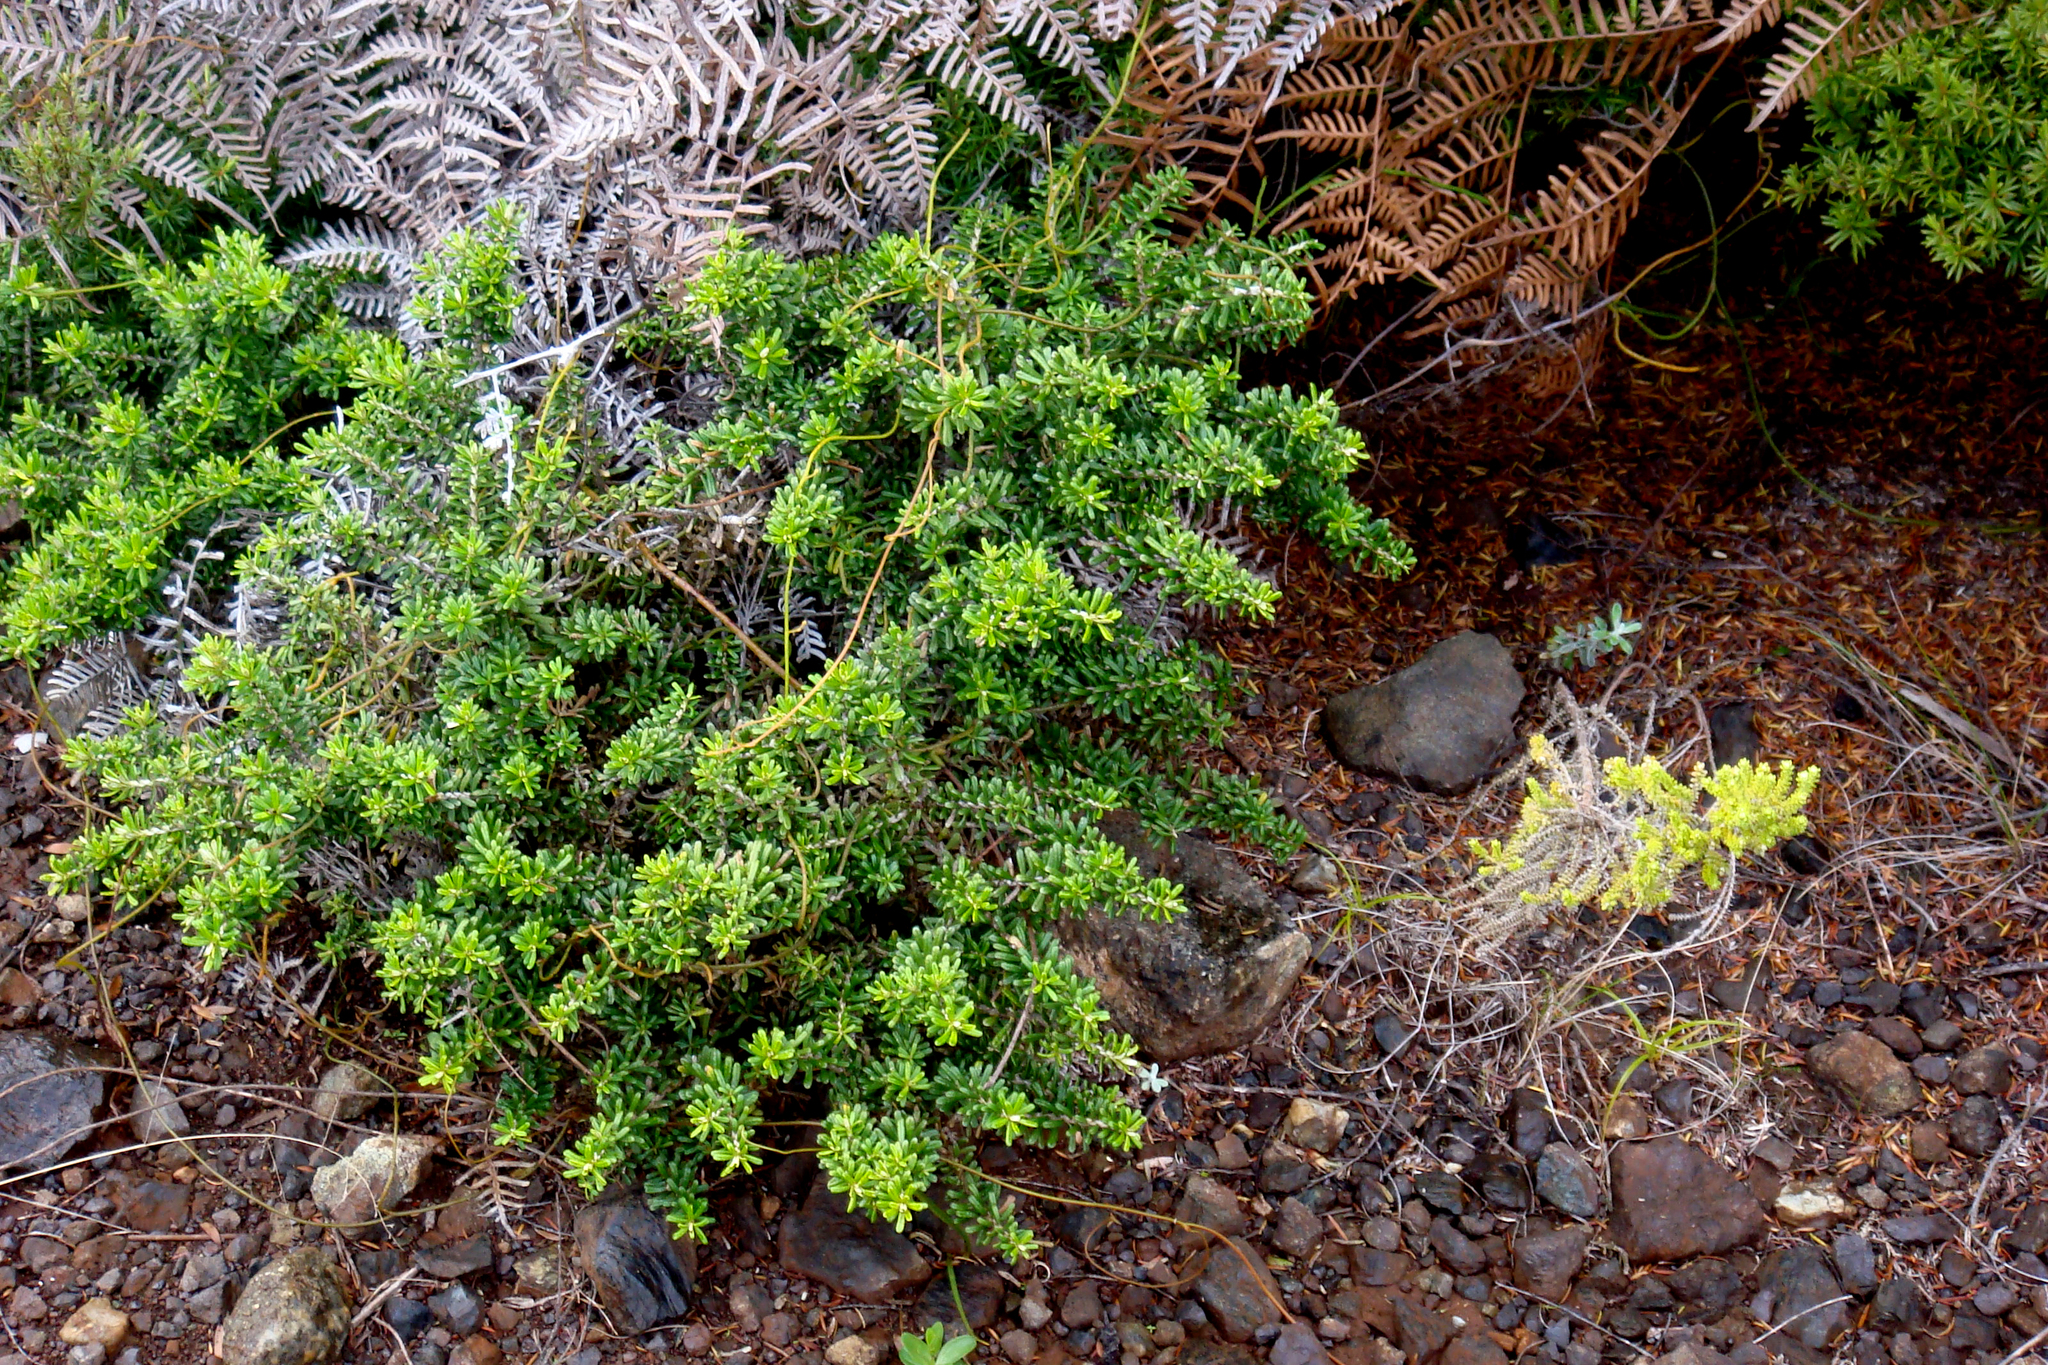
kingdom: Plantae
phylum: Tracheophyta
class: Magnoliopsida
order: Asterales
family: Asteraceae
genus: Ozothamnus
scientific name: Ozothamnus leptophyllus
